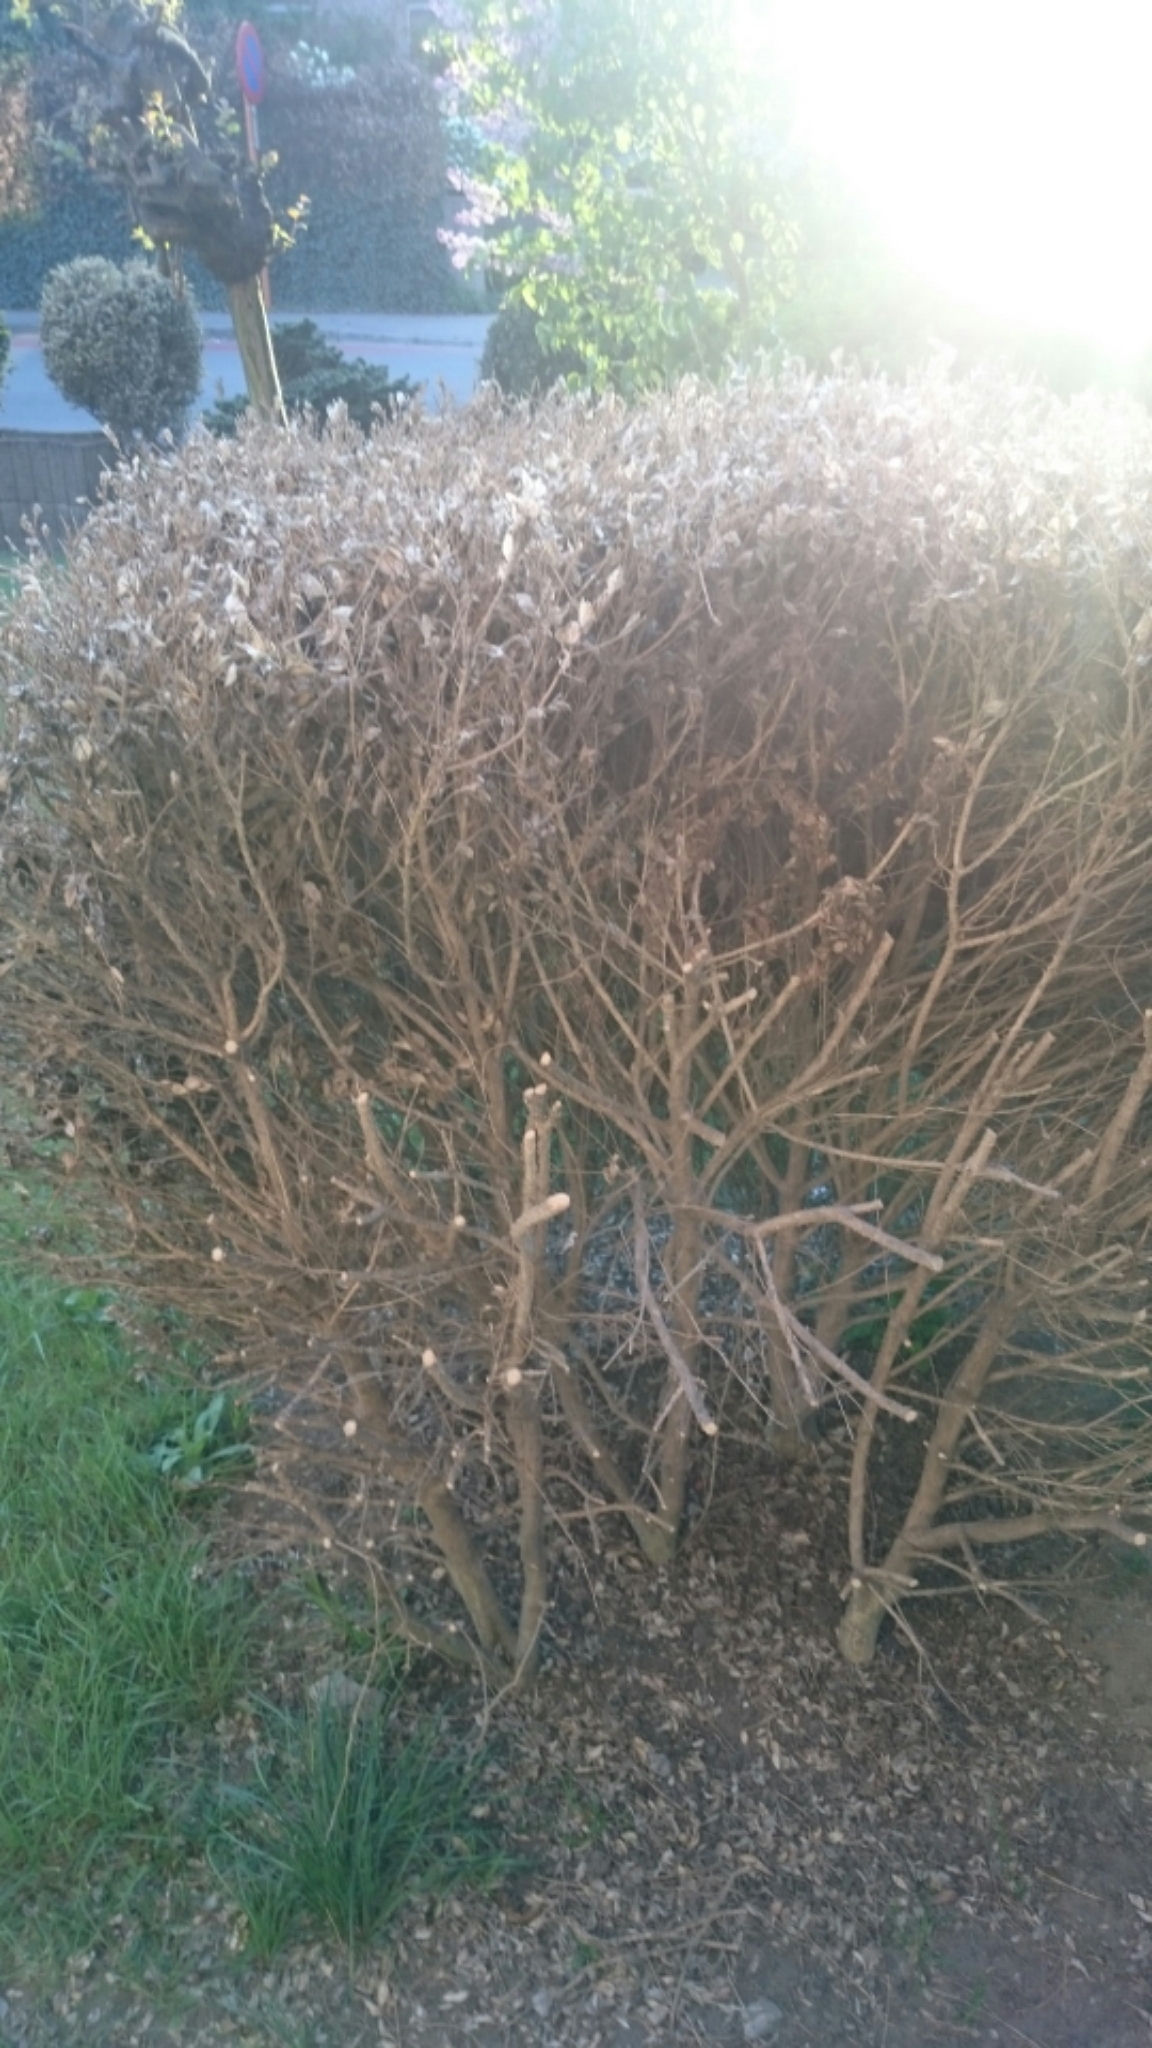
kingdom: Animalia
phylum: Arthropoda
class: Insecta
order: Lepidoptera
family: Crambidae
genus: Cydalima
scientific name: Cydalima perspectalis
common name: Box tree moth
